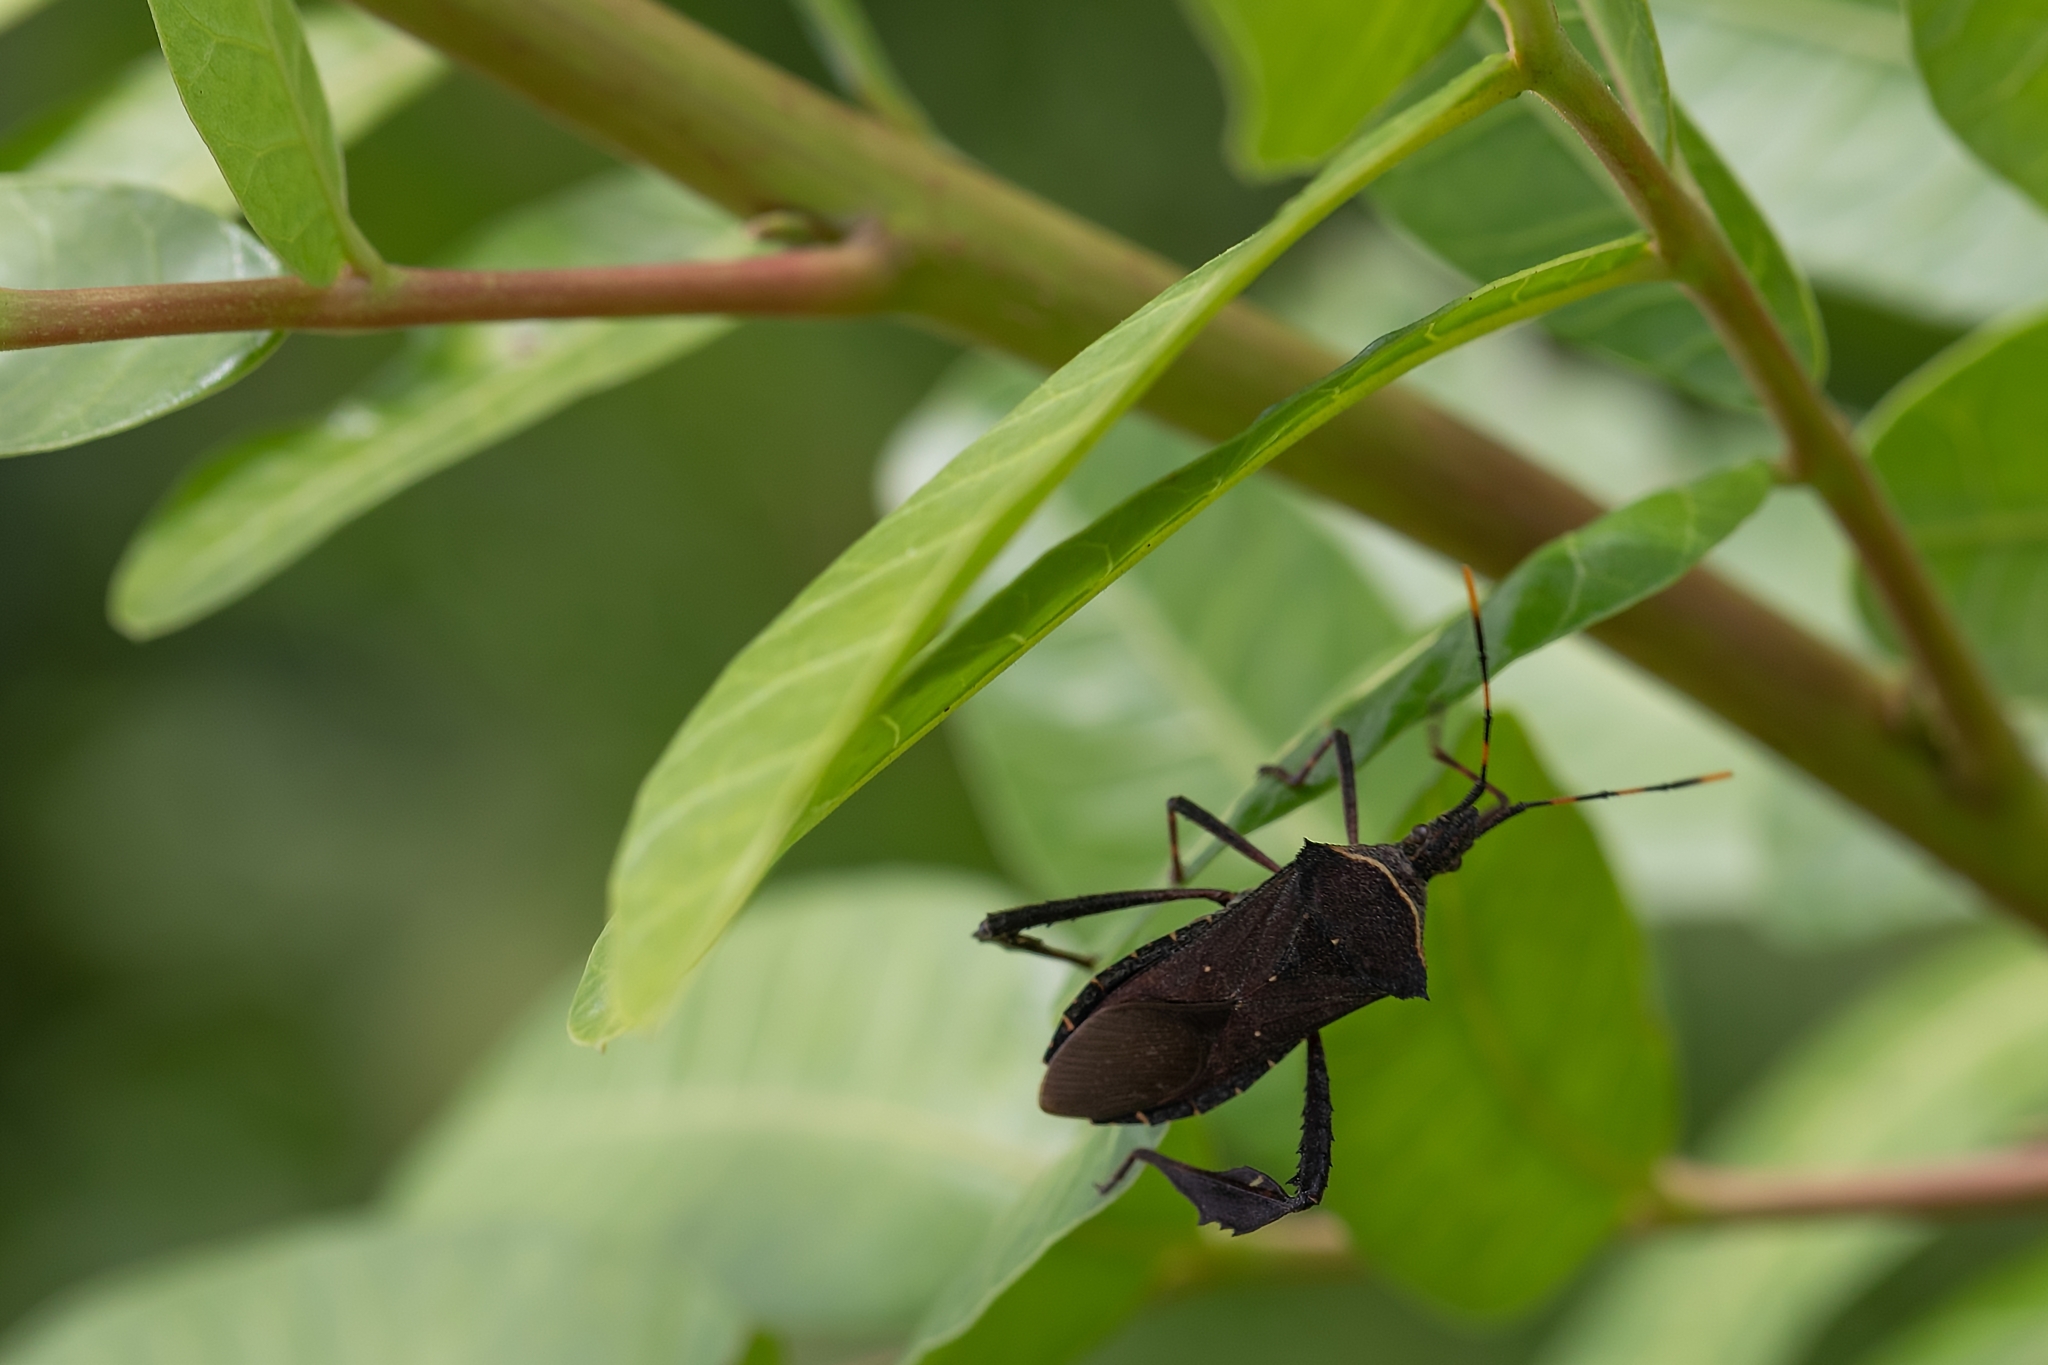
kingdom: Animalia
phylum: Arthropoda
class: Insecta
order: Hemiptera
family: Coreidae
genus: Leptoglossus
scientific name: Leptoglossus gonagra
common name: Citron bug
